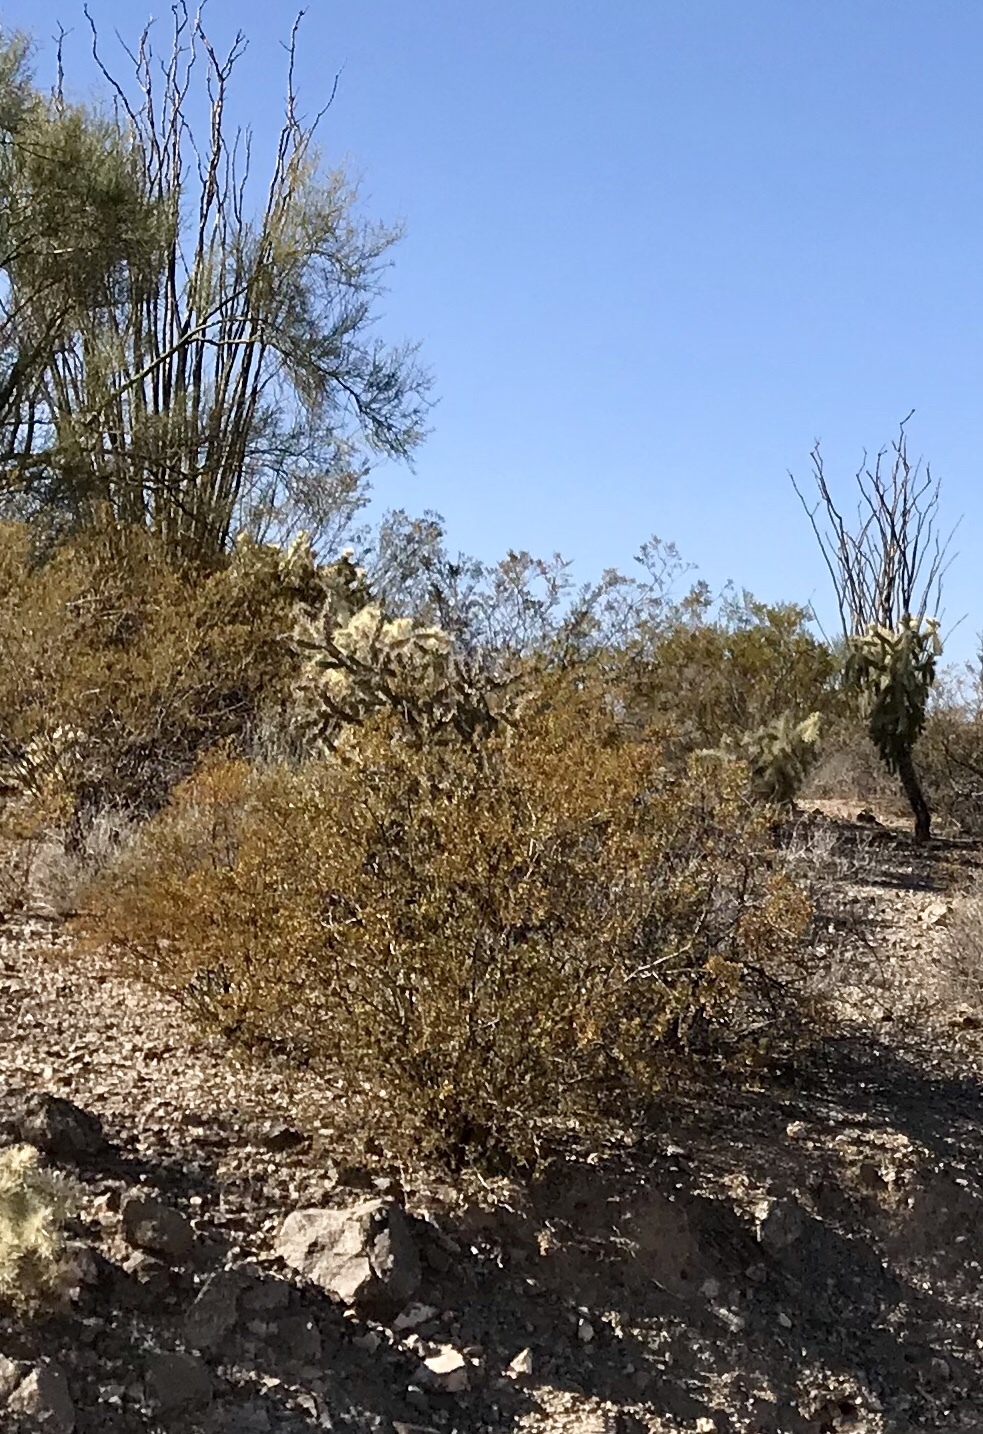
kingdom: Plantae
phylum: Tracheophyta
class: Magnoliopsida
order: Zygophyllales
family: Zygophyllaceae
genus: Larrea
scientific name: Larrea tridentata
